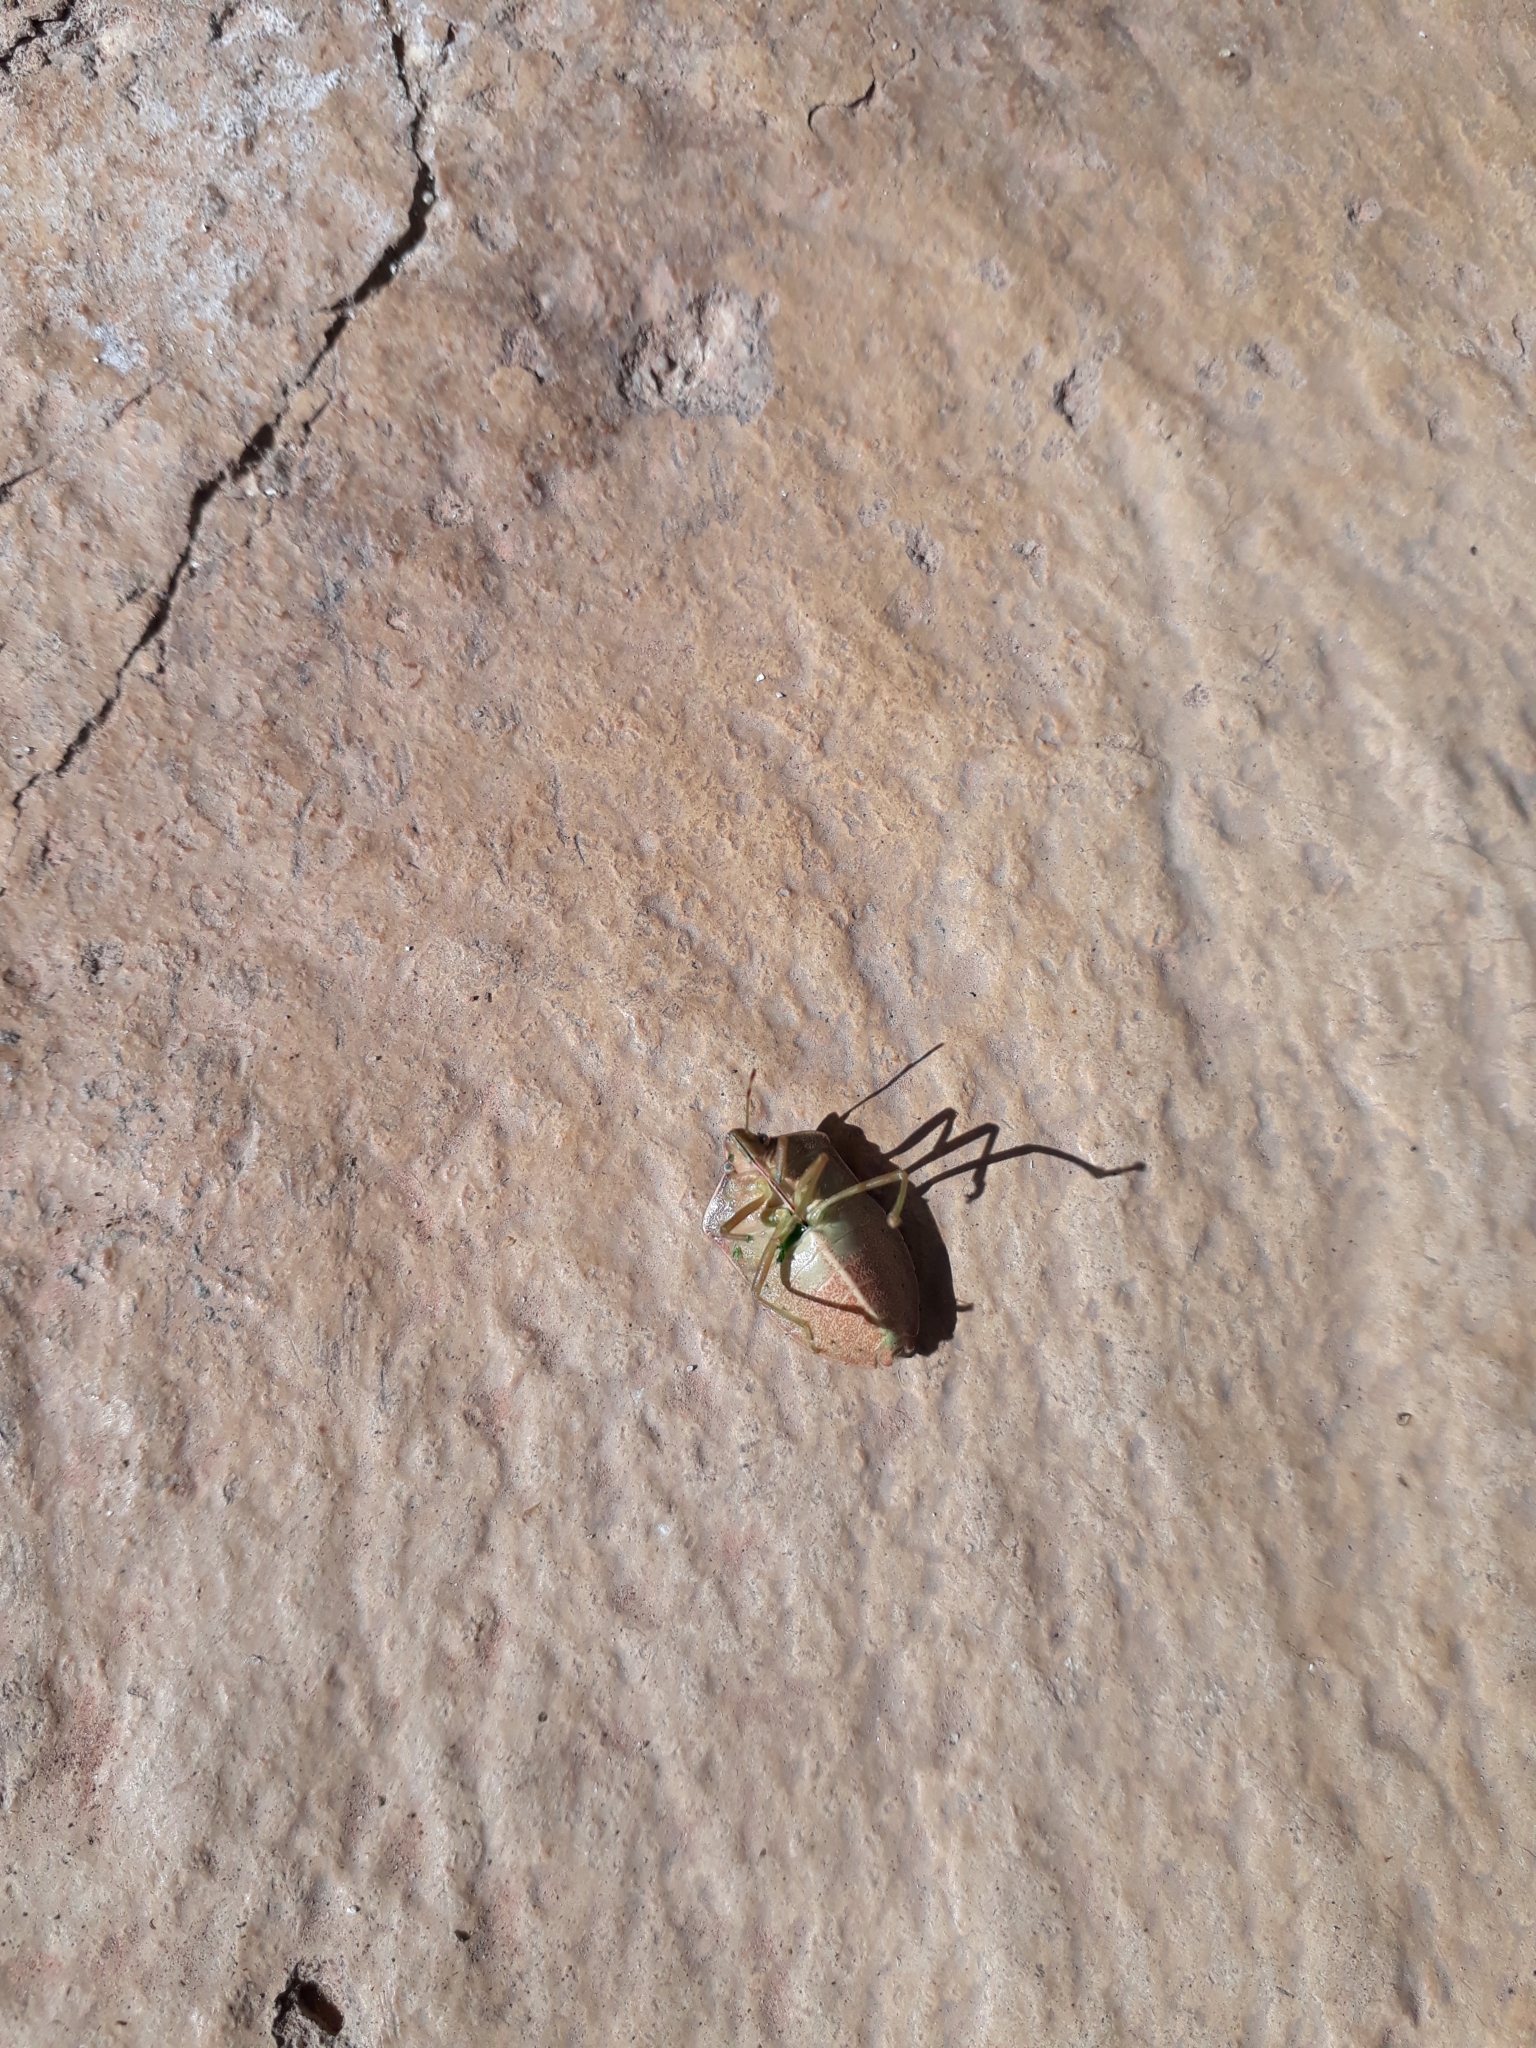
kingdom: Animalia
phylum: Arthropoda
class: Insecta
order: Hemiptera
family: Pentatomidae
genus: Nezara
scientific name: Nezara viridula
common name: Southern green stink bug
